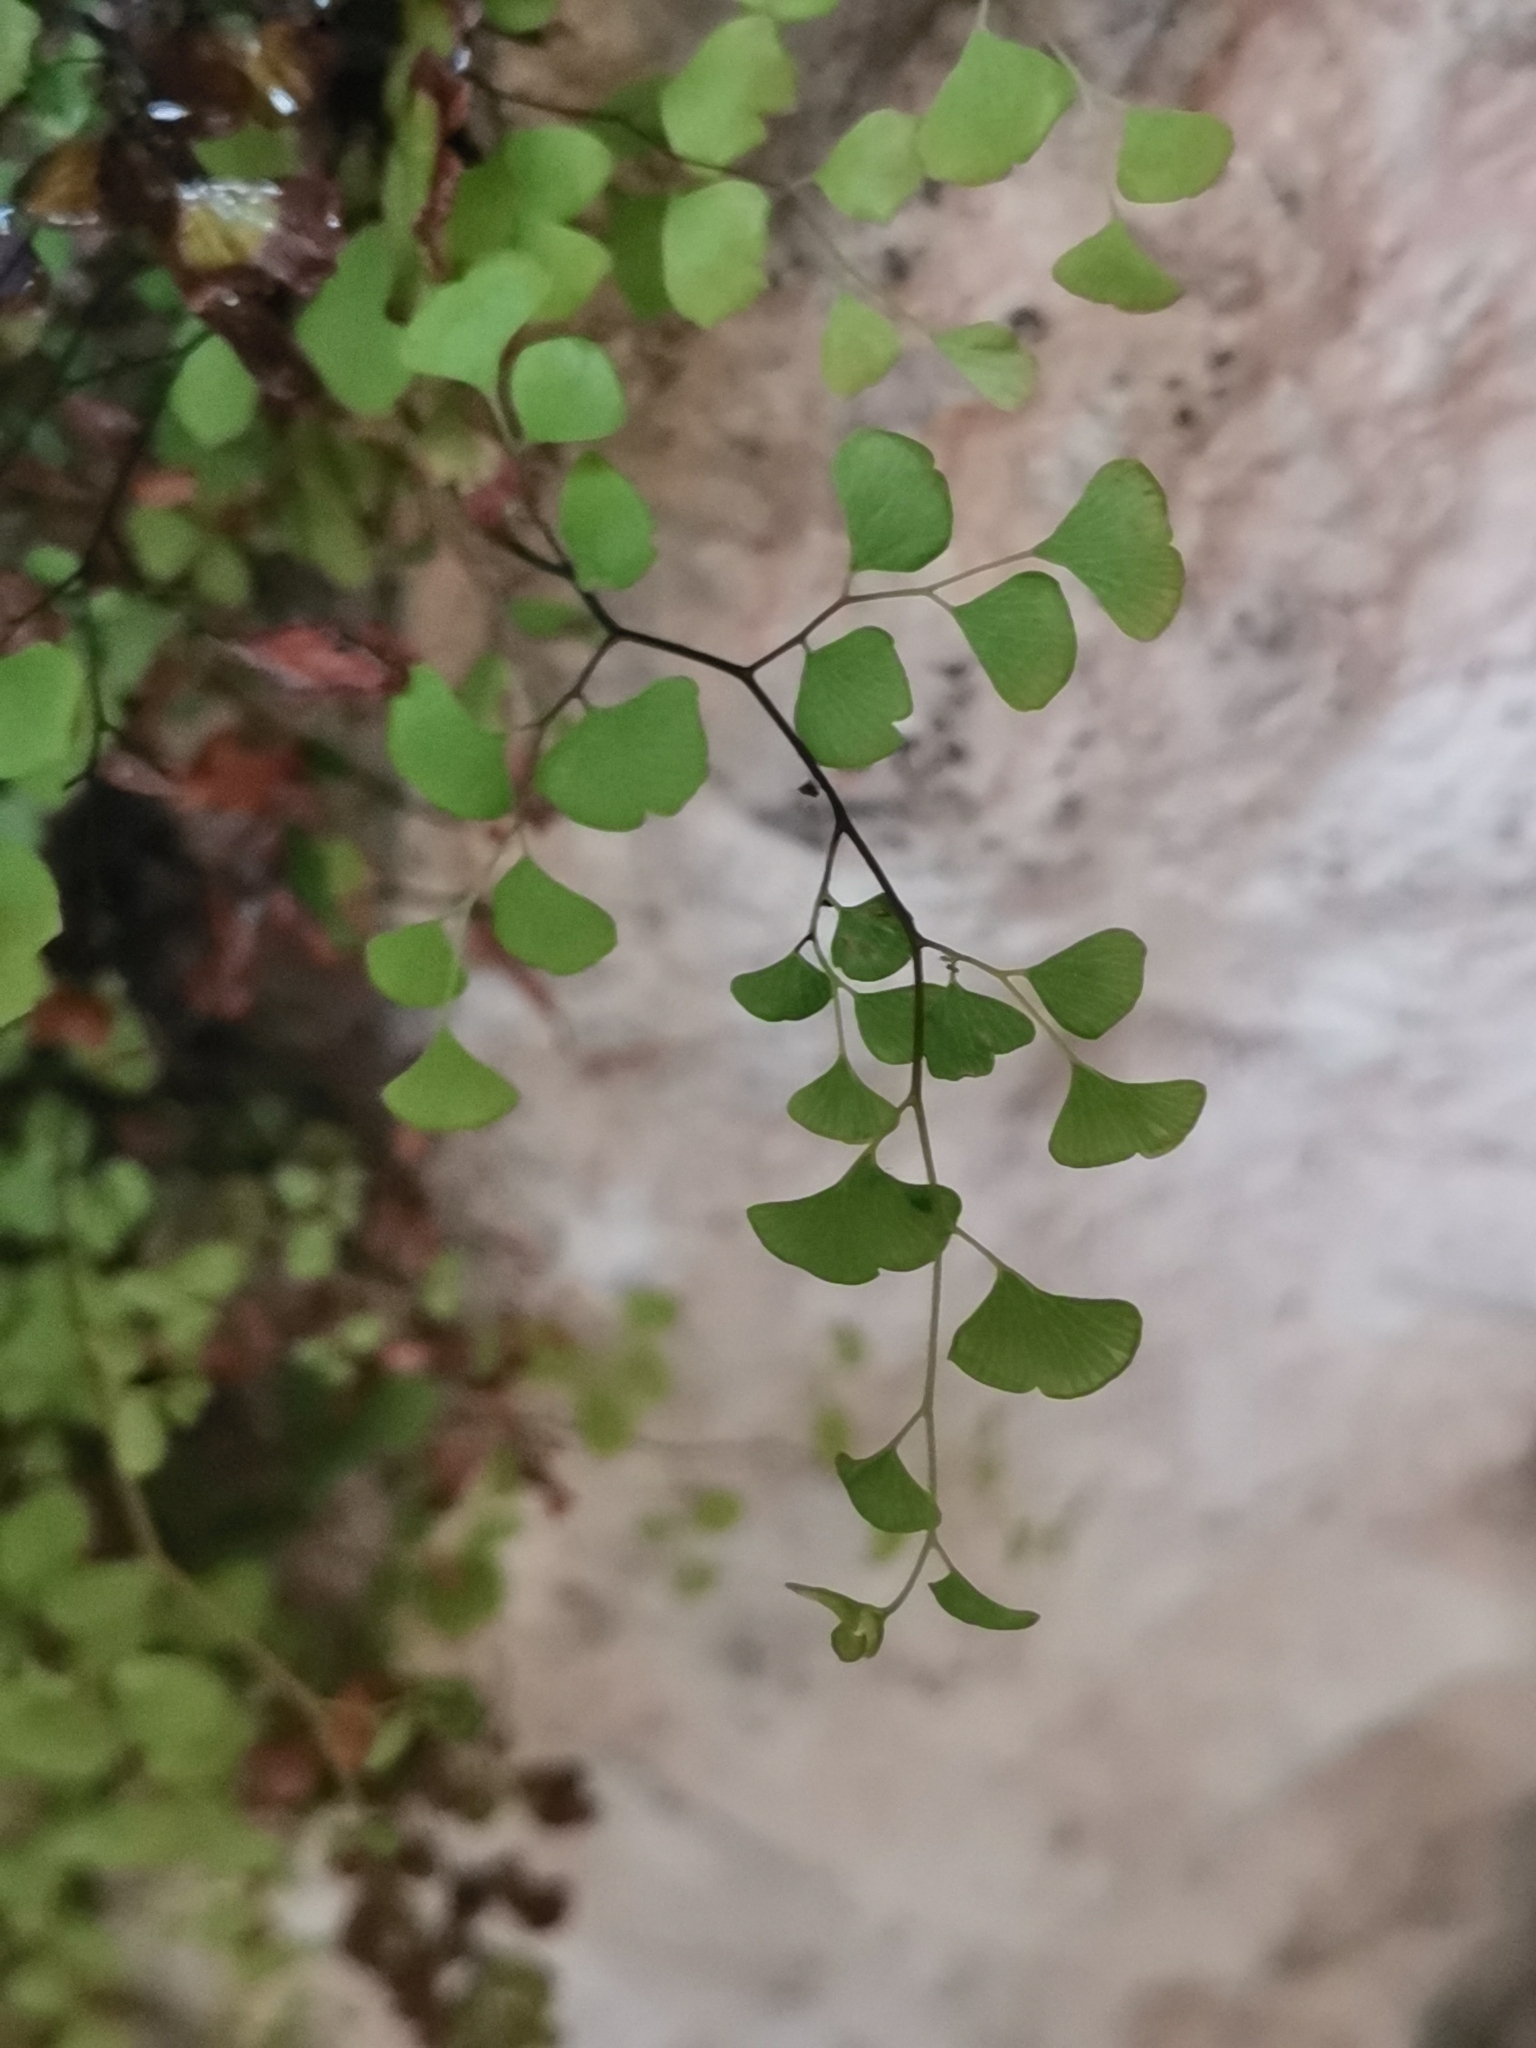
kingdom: Plantae
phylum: Tracheophyta
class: Polypodiopsida
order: Polypodiales
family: Pteridaceae
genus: Adiantum
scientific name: Adiantum capillus-veneris
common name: Maidenhair fern
